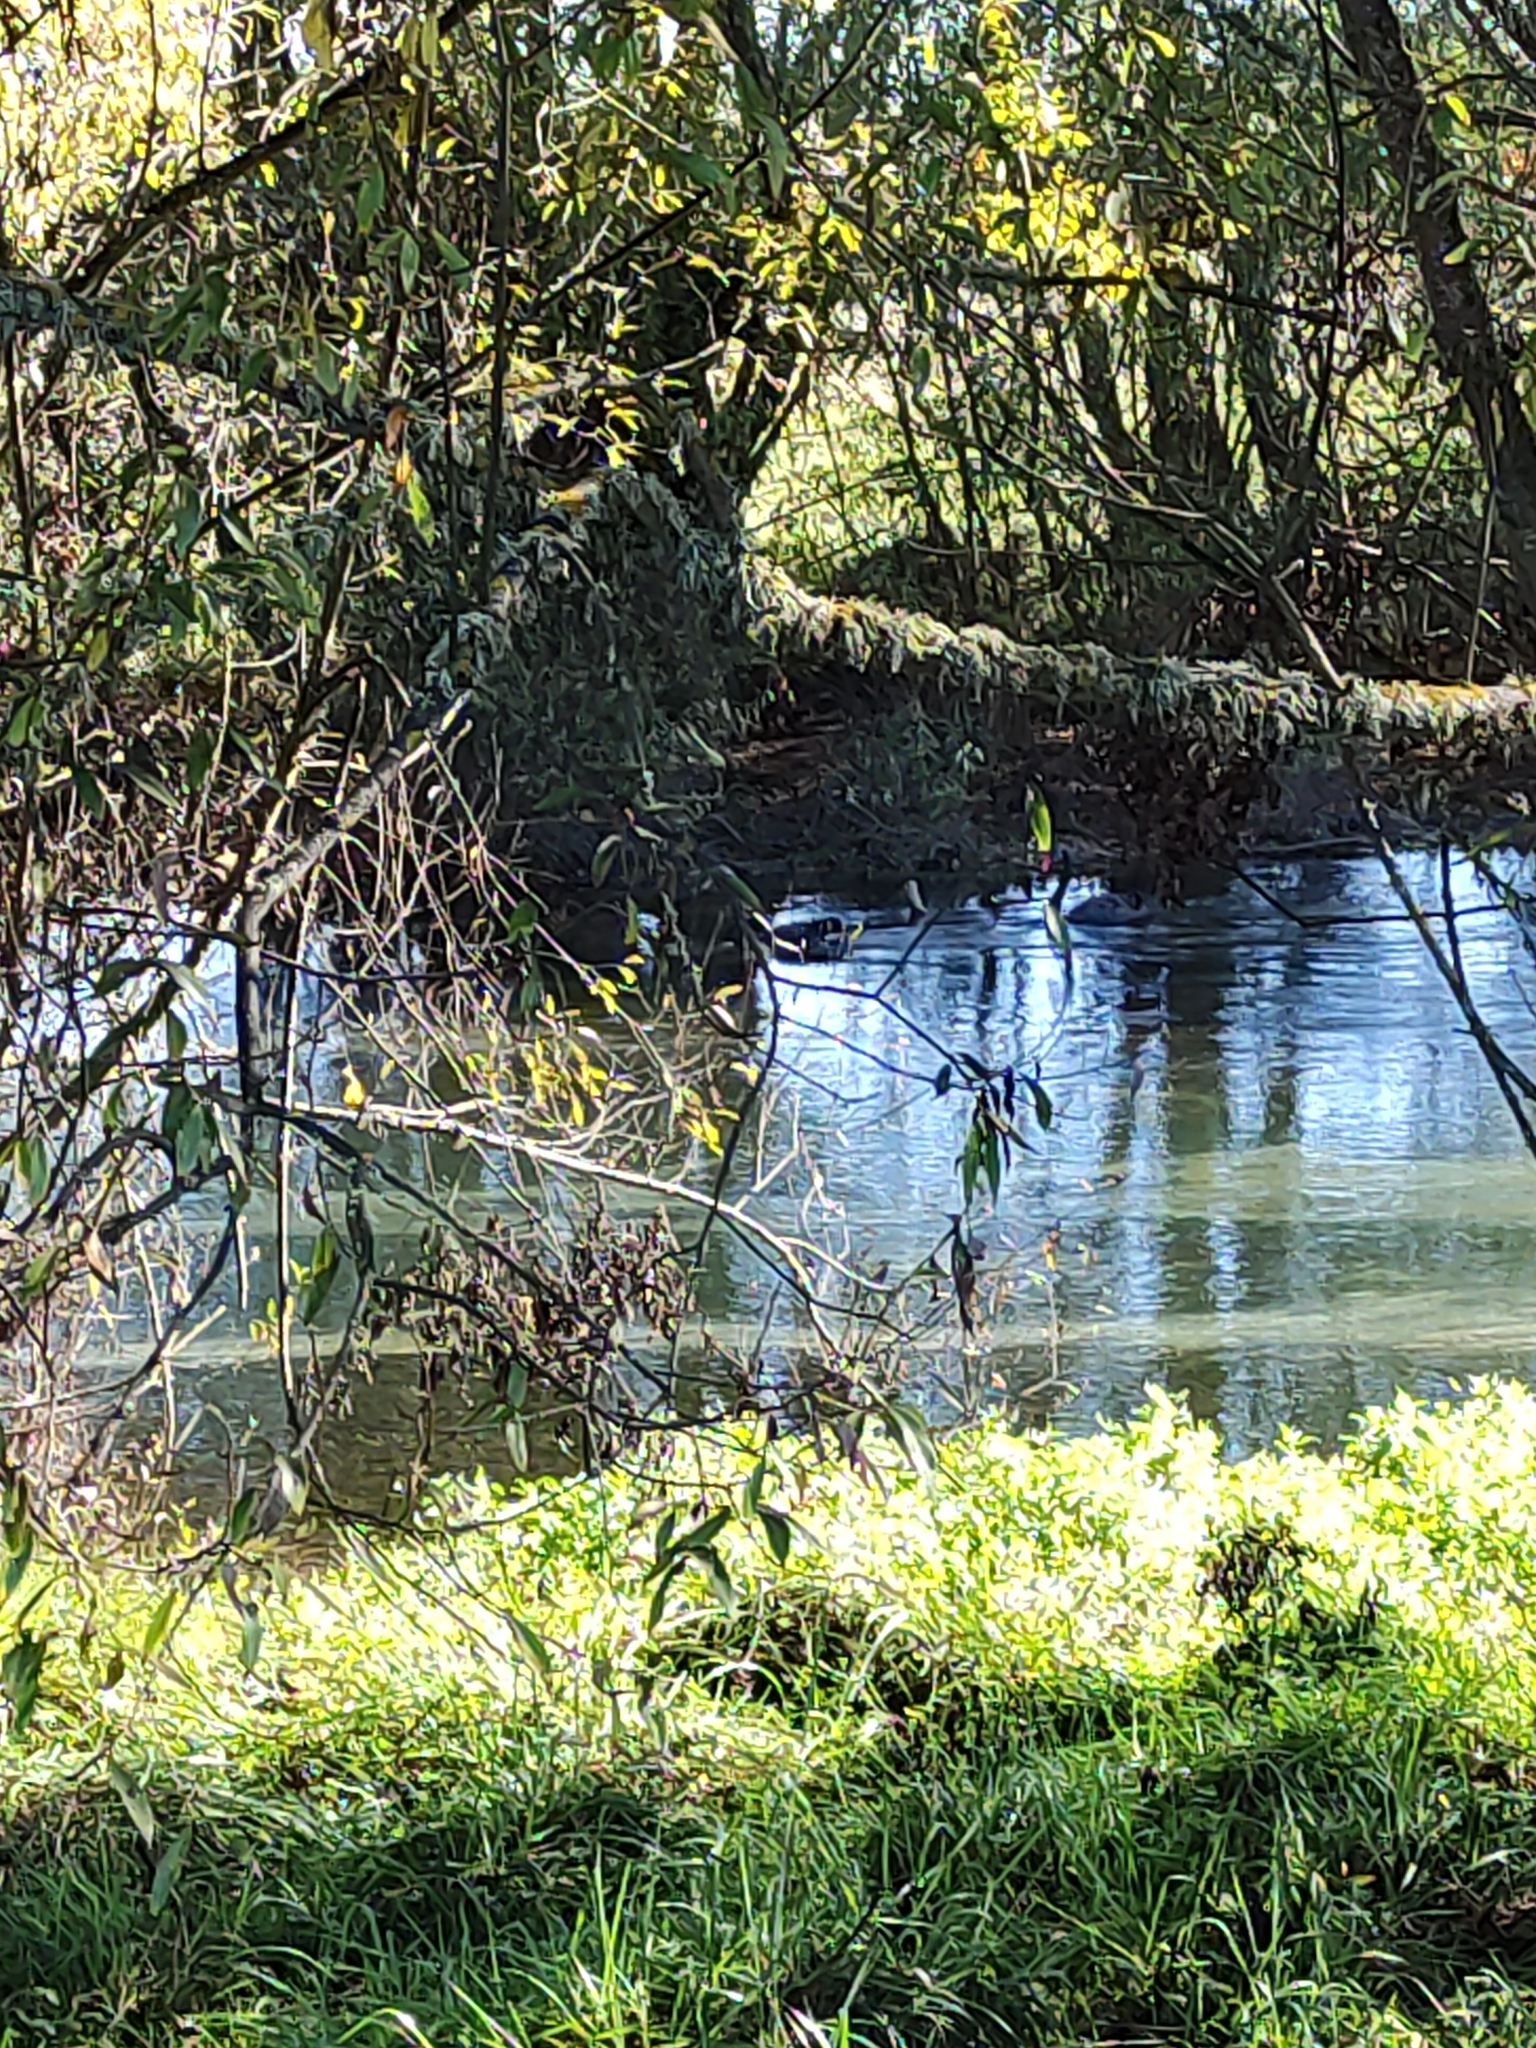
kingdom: Animalia
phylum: Chordata
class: Aves
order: Anseriformes
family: Anatidae
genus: Cygnus
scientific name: Cygnus atratus
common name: Black swan
